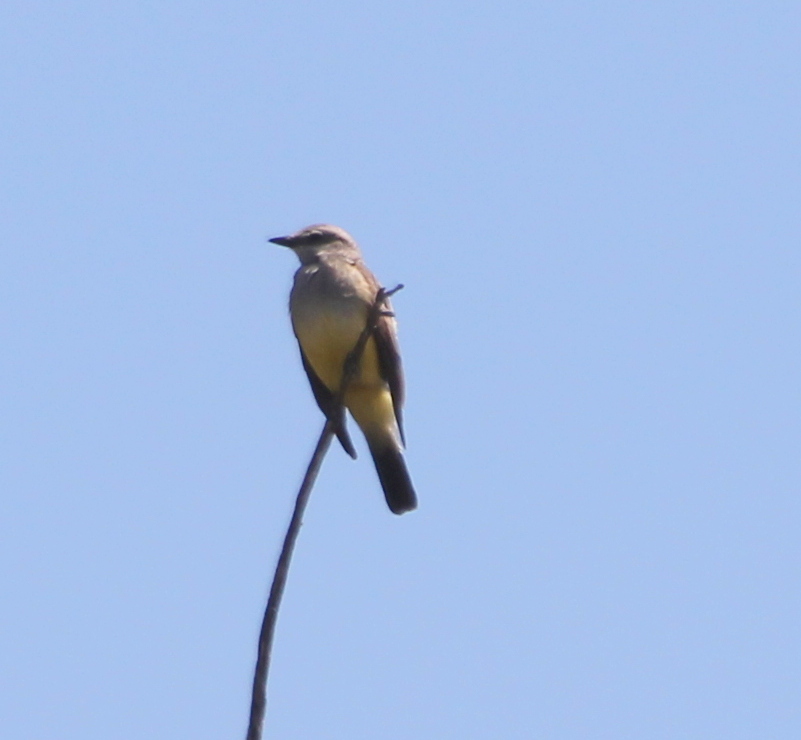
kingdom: Animalia
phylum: Chordata
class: Aves
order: Passeriformes
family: Tyrannidae
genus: Tyrannus
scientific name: Tyrannus verticalis
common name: Western kingbird
